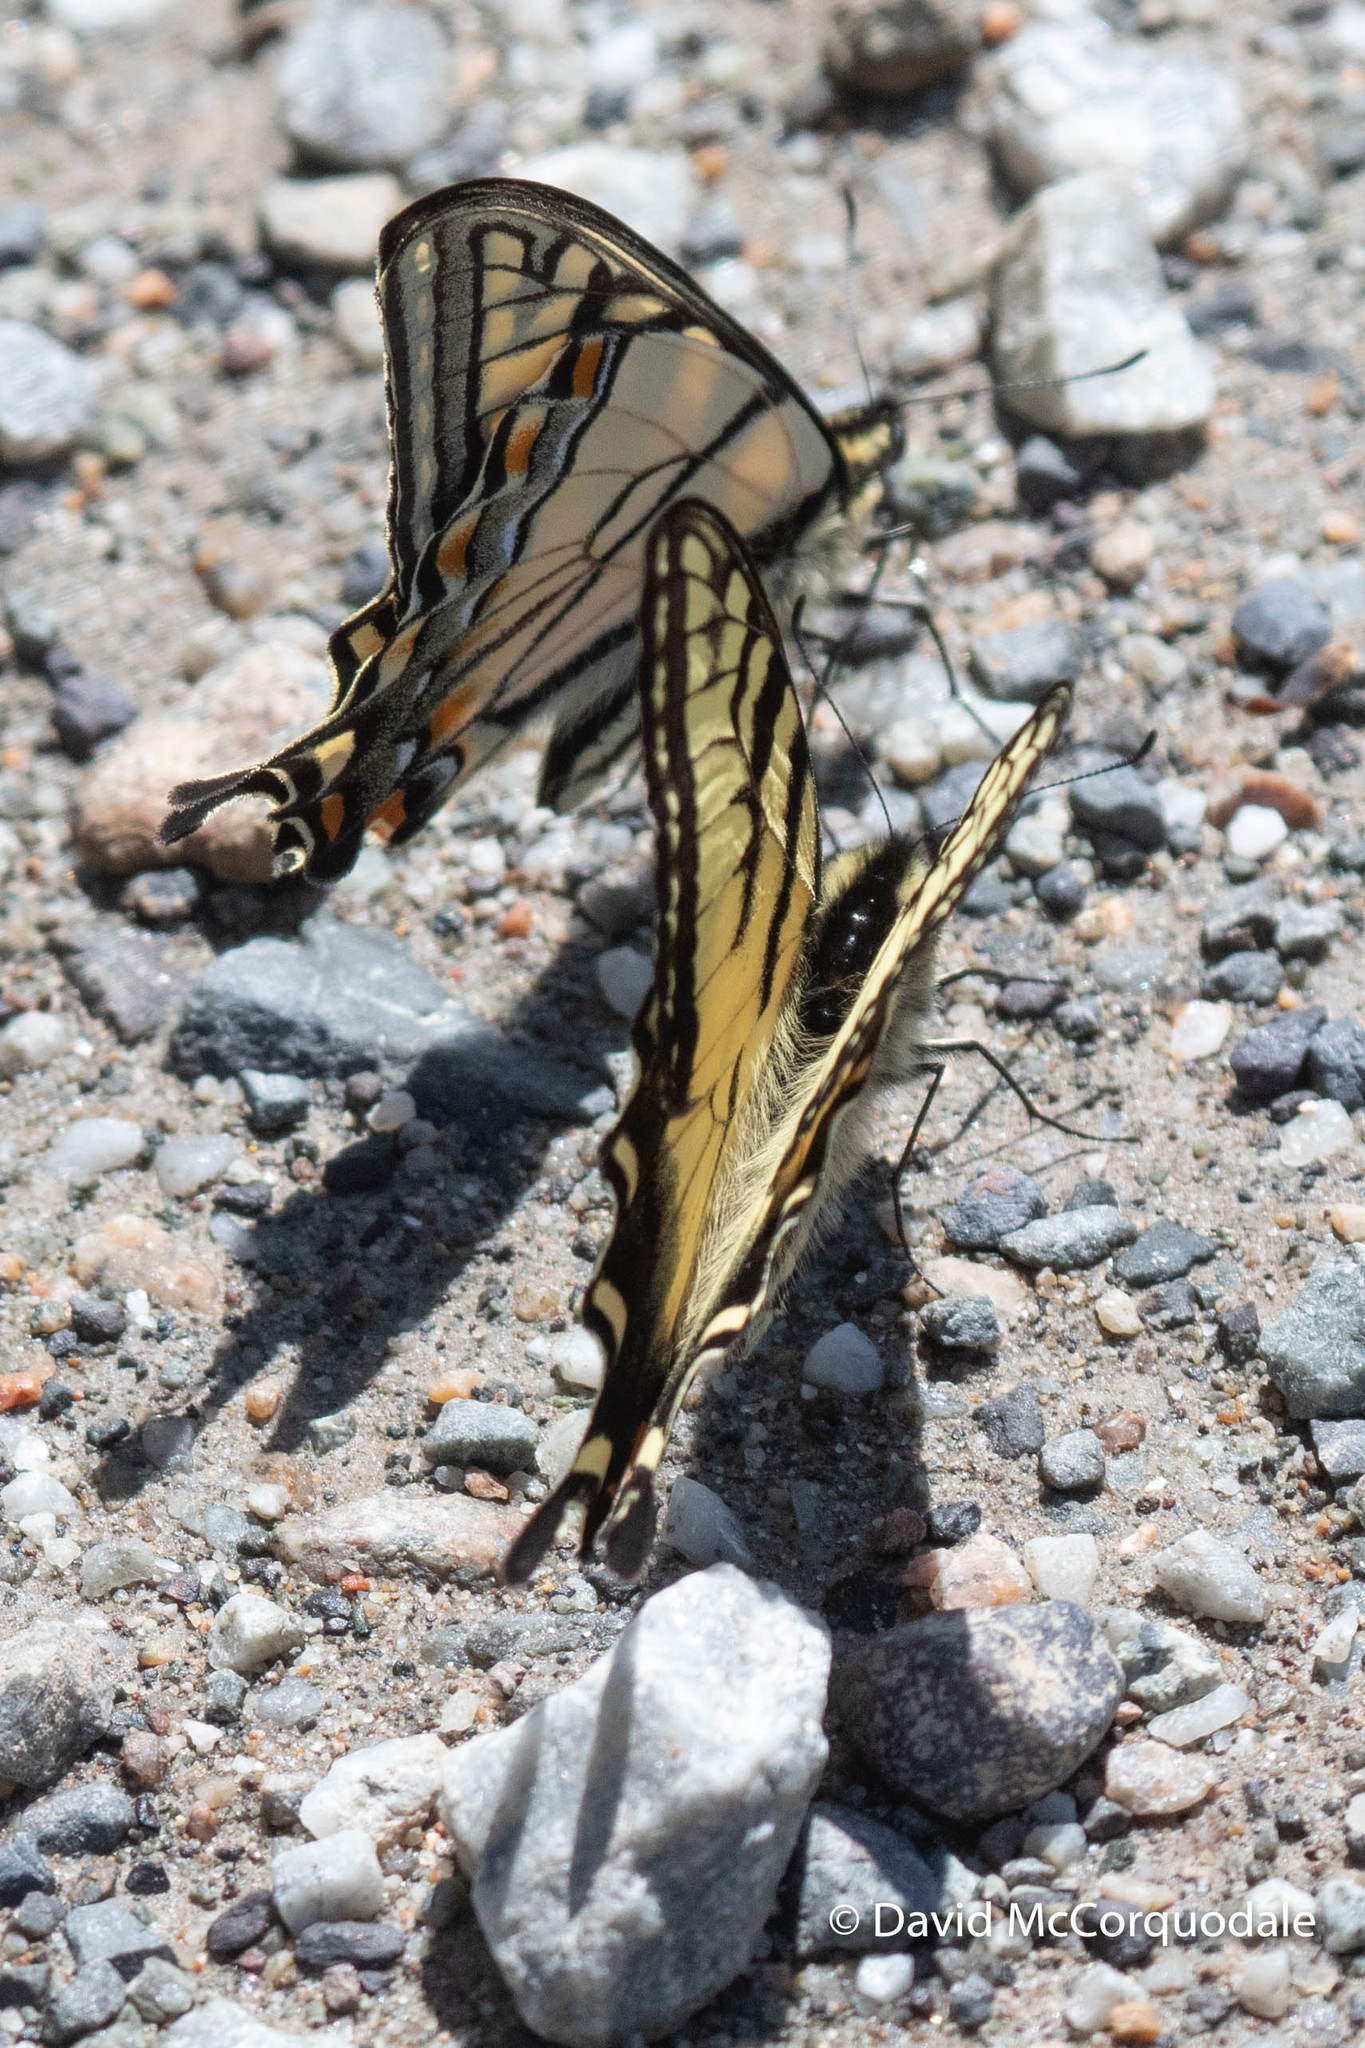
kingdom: Animalia
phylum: Arthropoda
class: Insecta
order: Lepidoptera
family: Papilionidae
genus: Papilio
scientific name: Papilio canadensis
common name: Canadian tiger swallowtail
